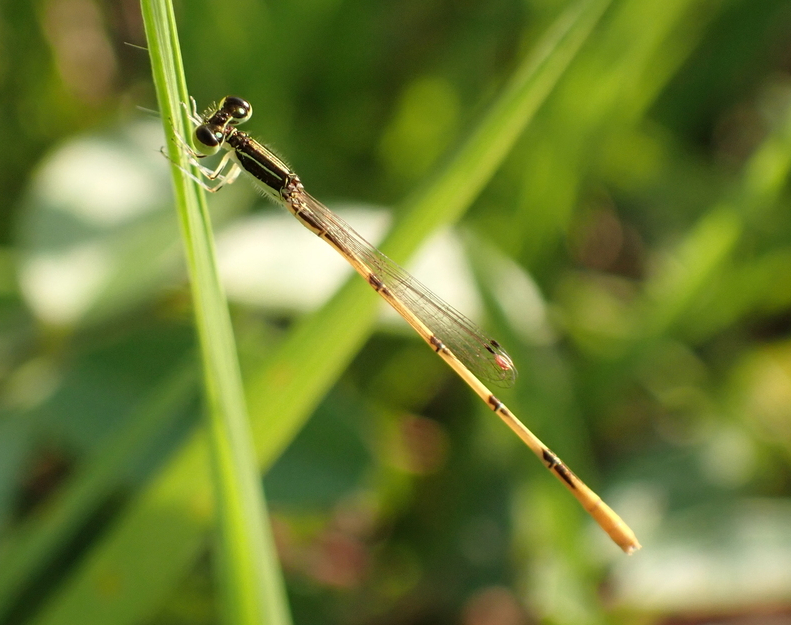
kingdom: Animalia
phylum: Arthropoda
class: Insecta
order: Odonata
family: Coenagrionidae
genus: Ischnura
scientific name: Ischnura hastata
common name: Citrine forktail
